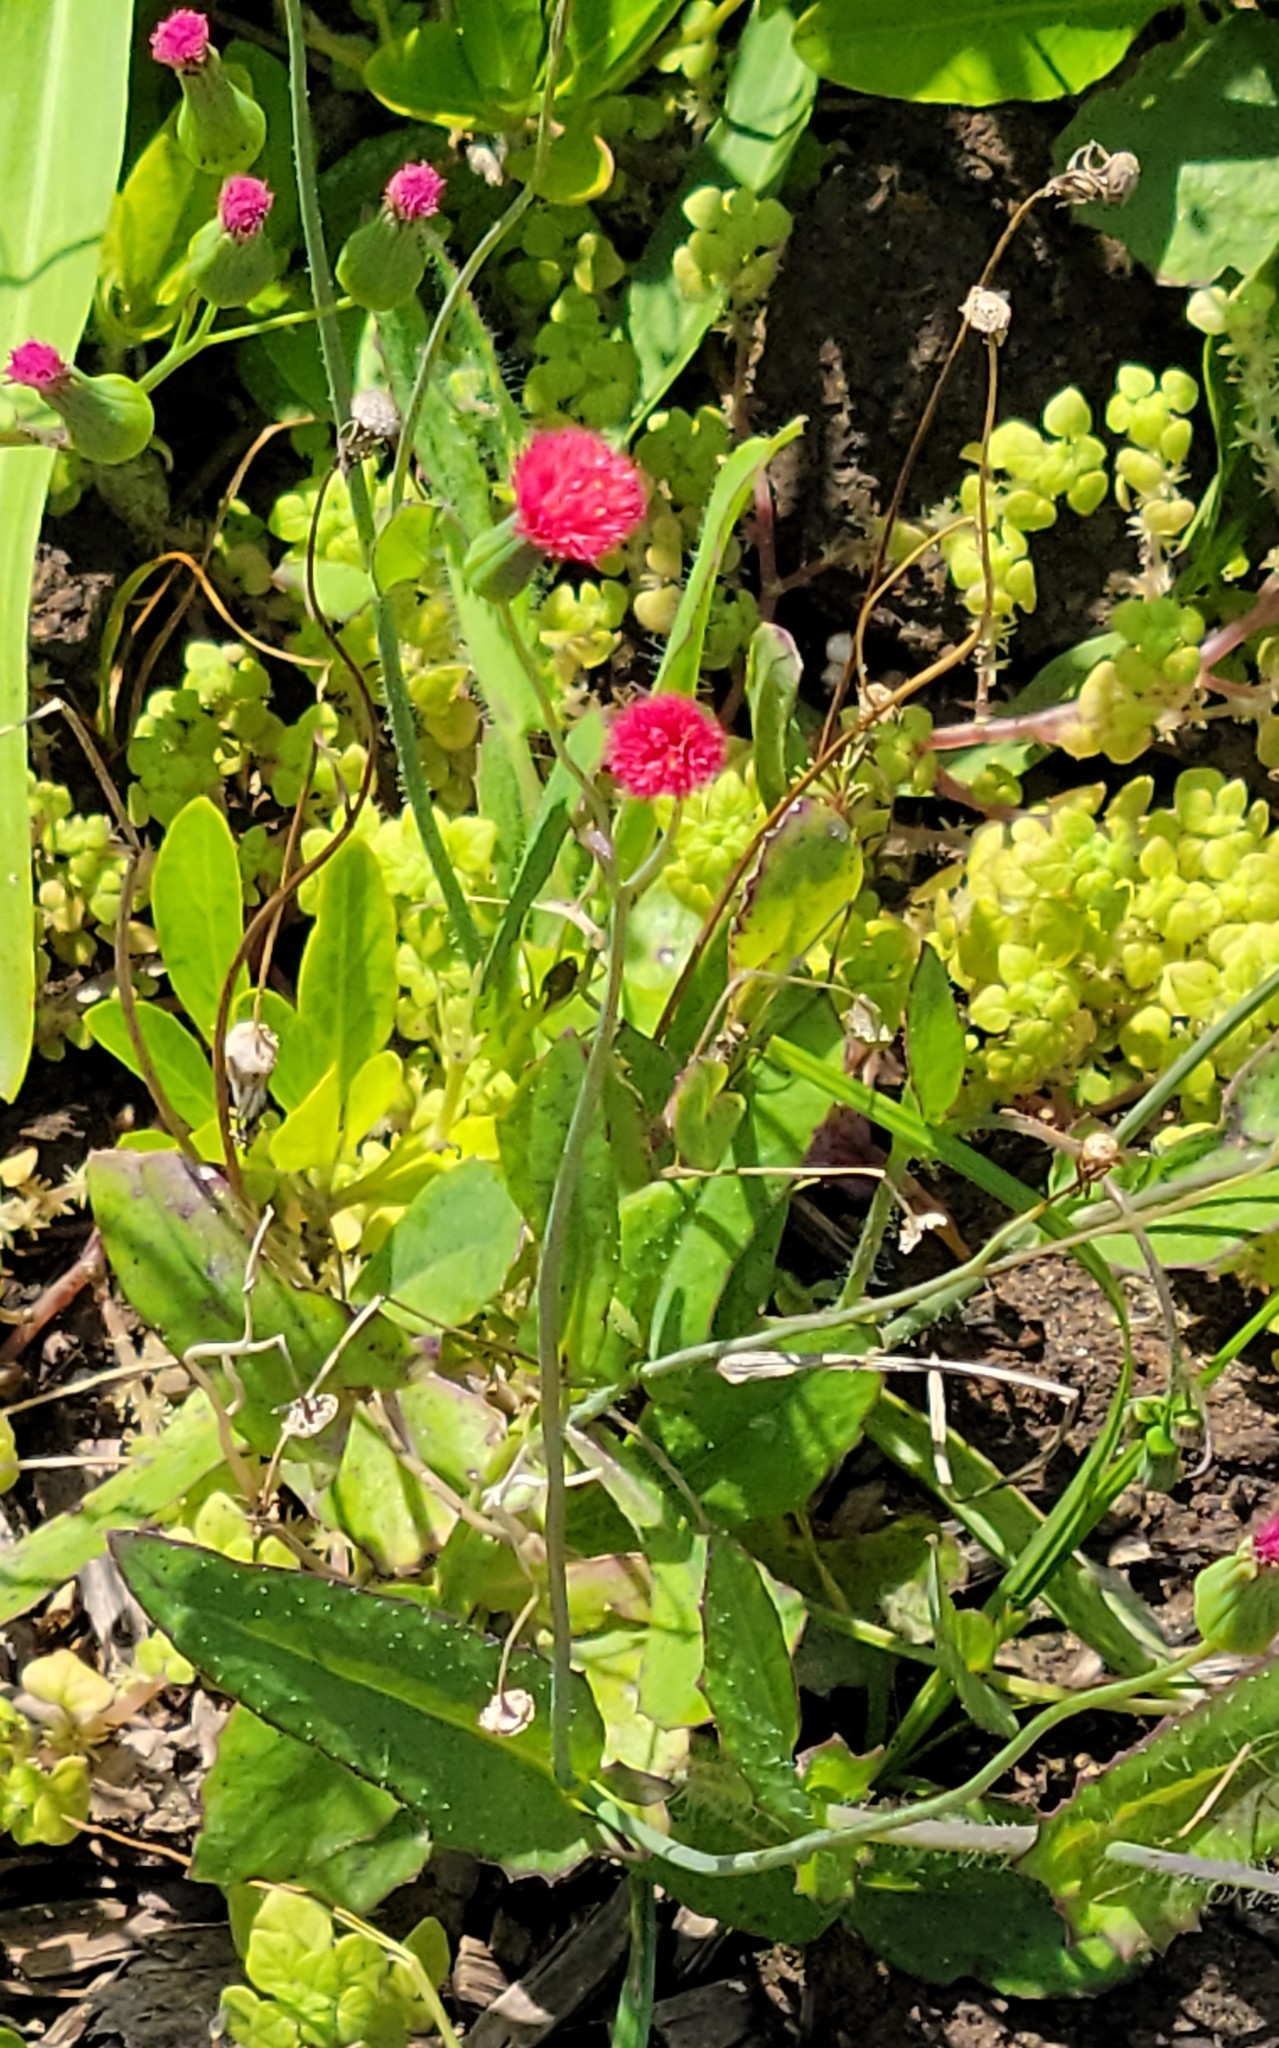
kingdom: Plantae
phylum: Tracheophyta
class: Magnoliopsida
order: Caryophyllales
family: Nyctaginaceae
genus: Boerhavia
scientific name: Boerhavia coccinea
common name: Scarlet spiderling
